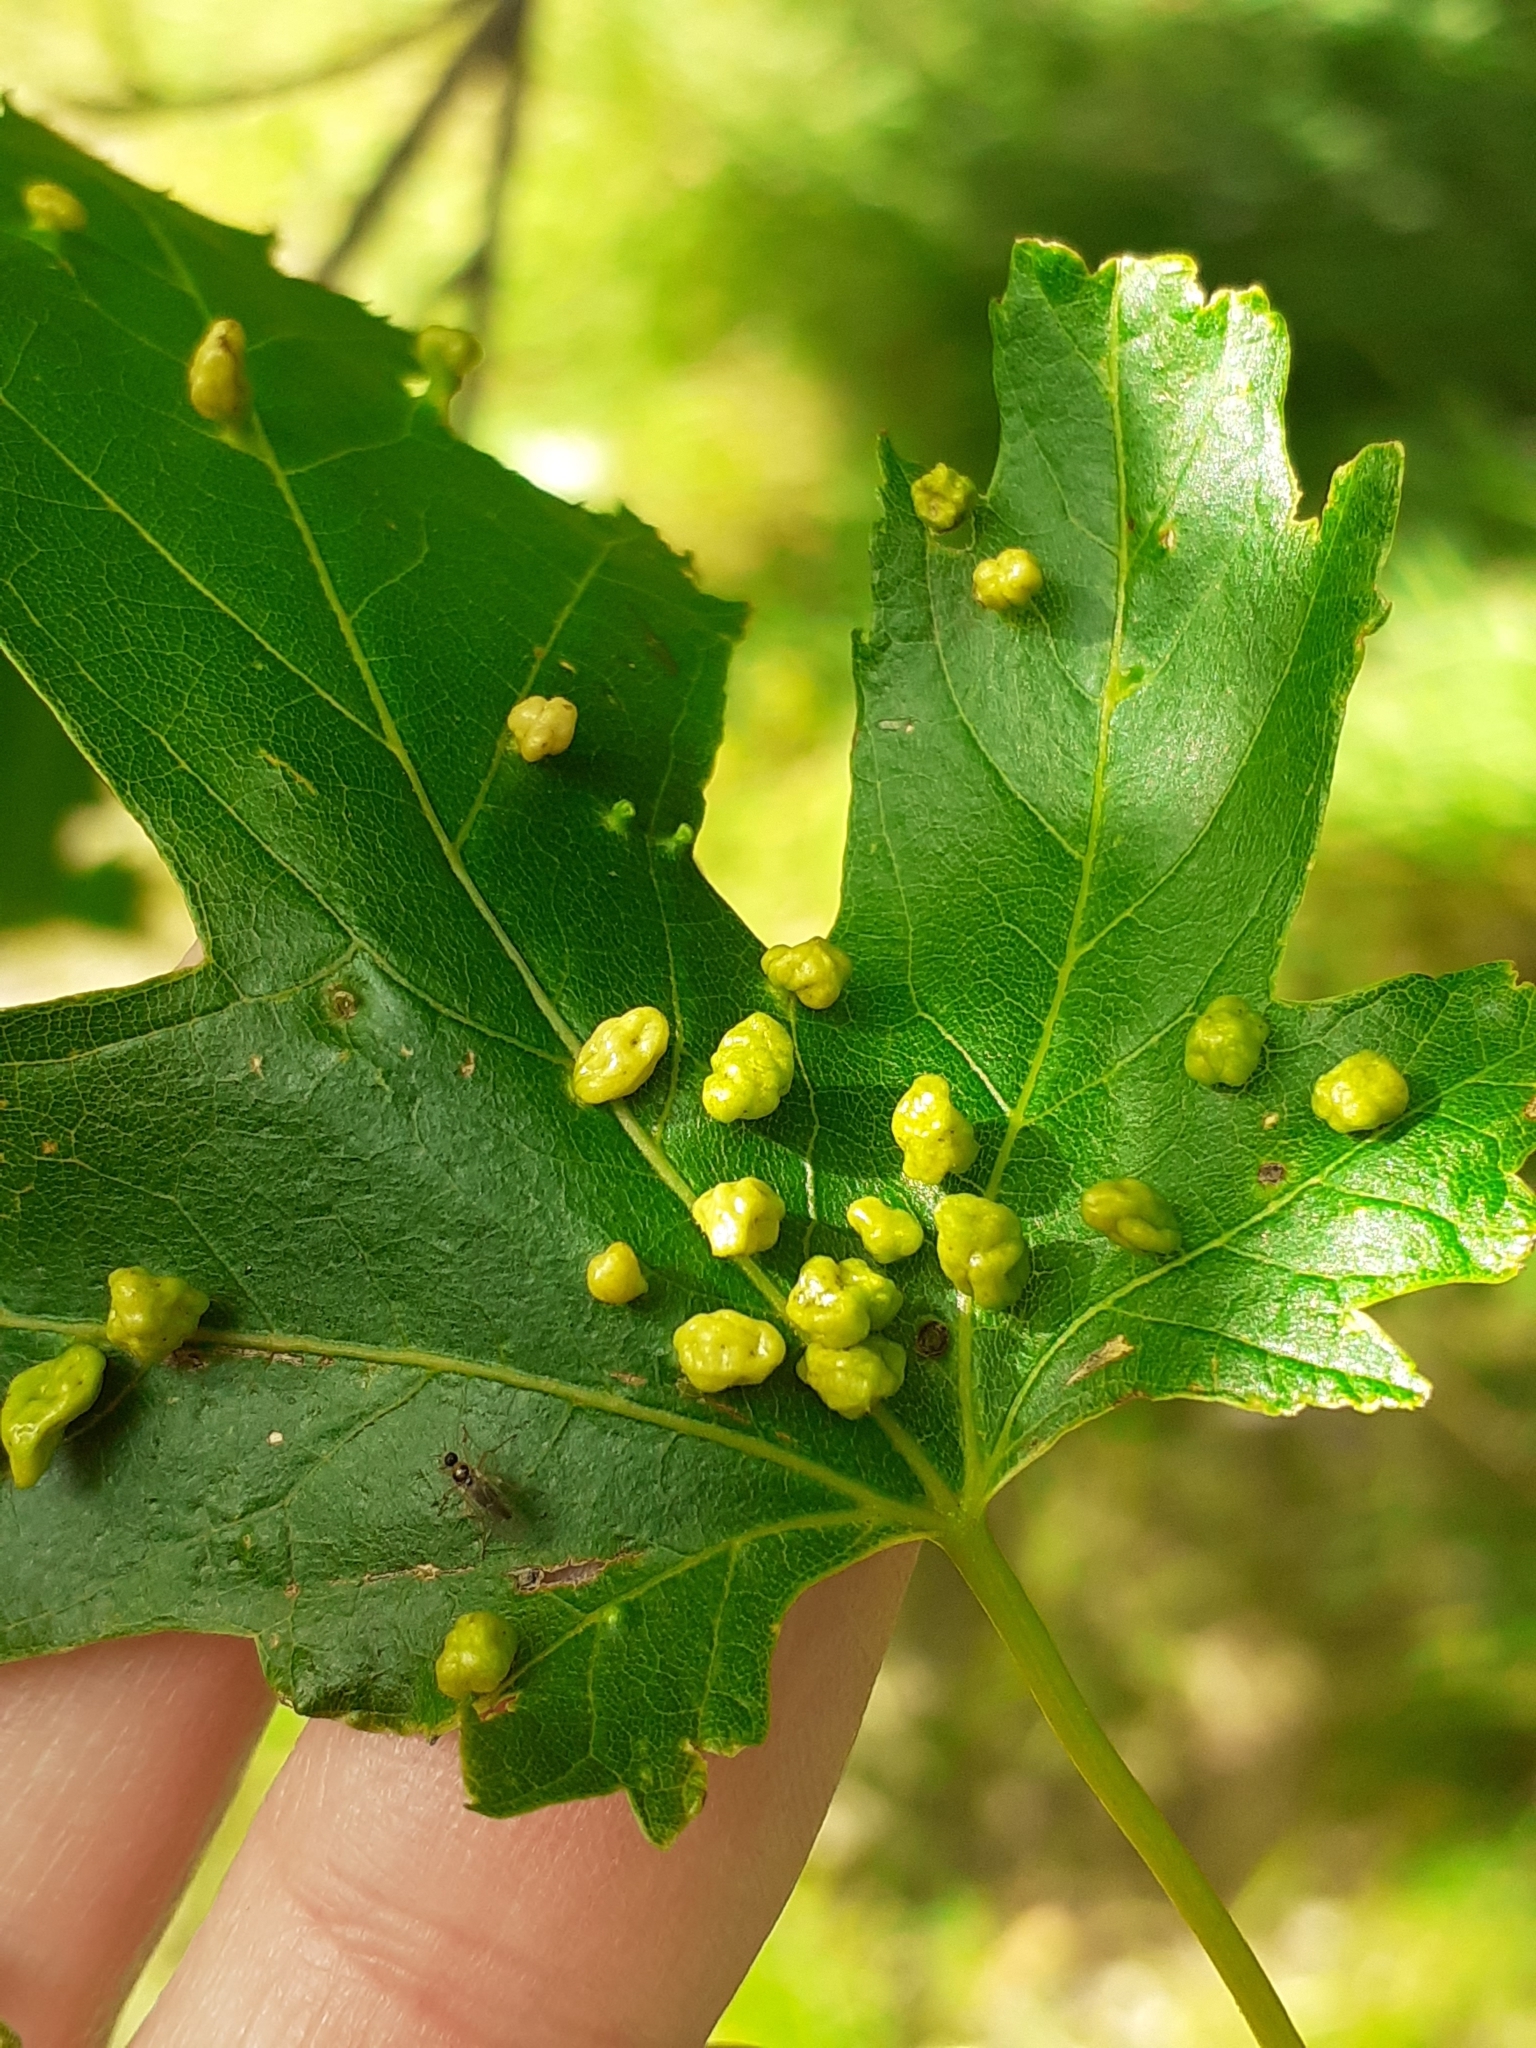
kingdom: Animalia
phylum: Arthropoda
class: Arachnida
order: Trombidiformes
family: Eriophyidae
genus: Vasates
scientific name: Vasates quadripedes
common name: Maple bladder gall mite
